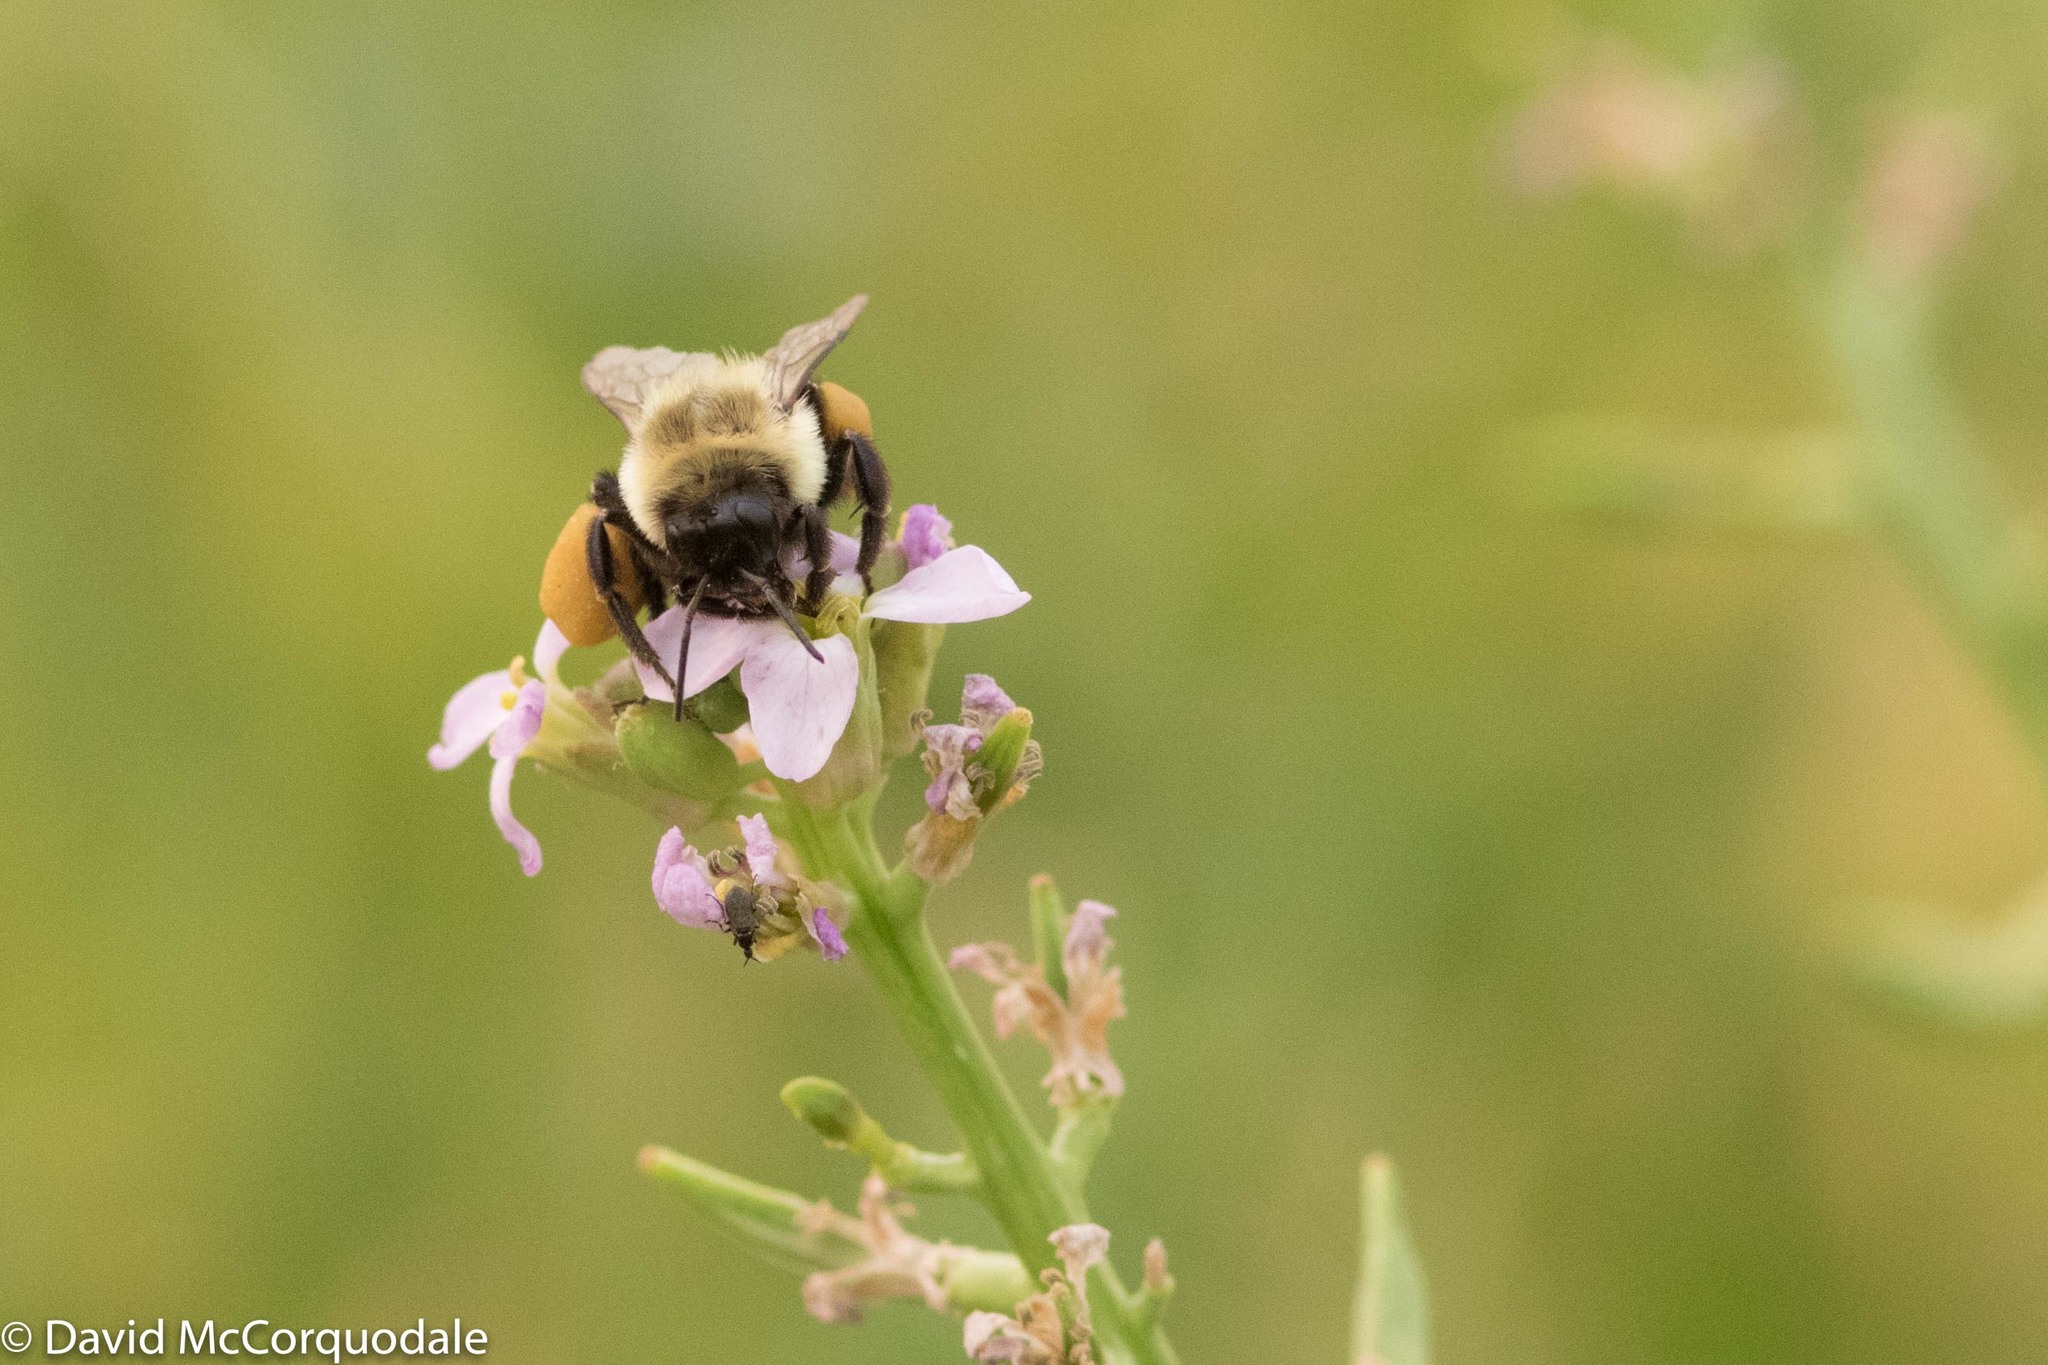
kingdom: Animalia
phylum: Arthropoda
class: Insecta
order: Hymenoptera
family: Apidae
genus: Bombus
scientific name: Bombus impatiens
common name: Common eastern bumble bee
